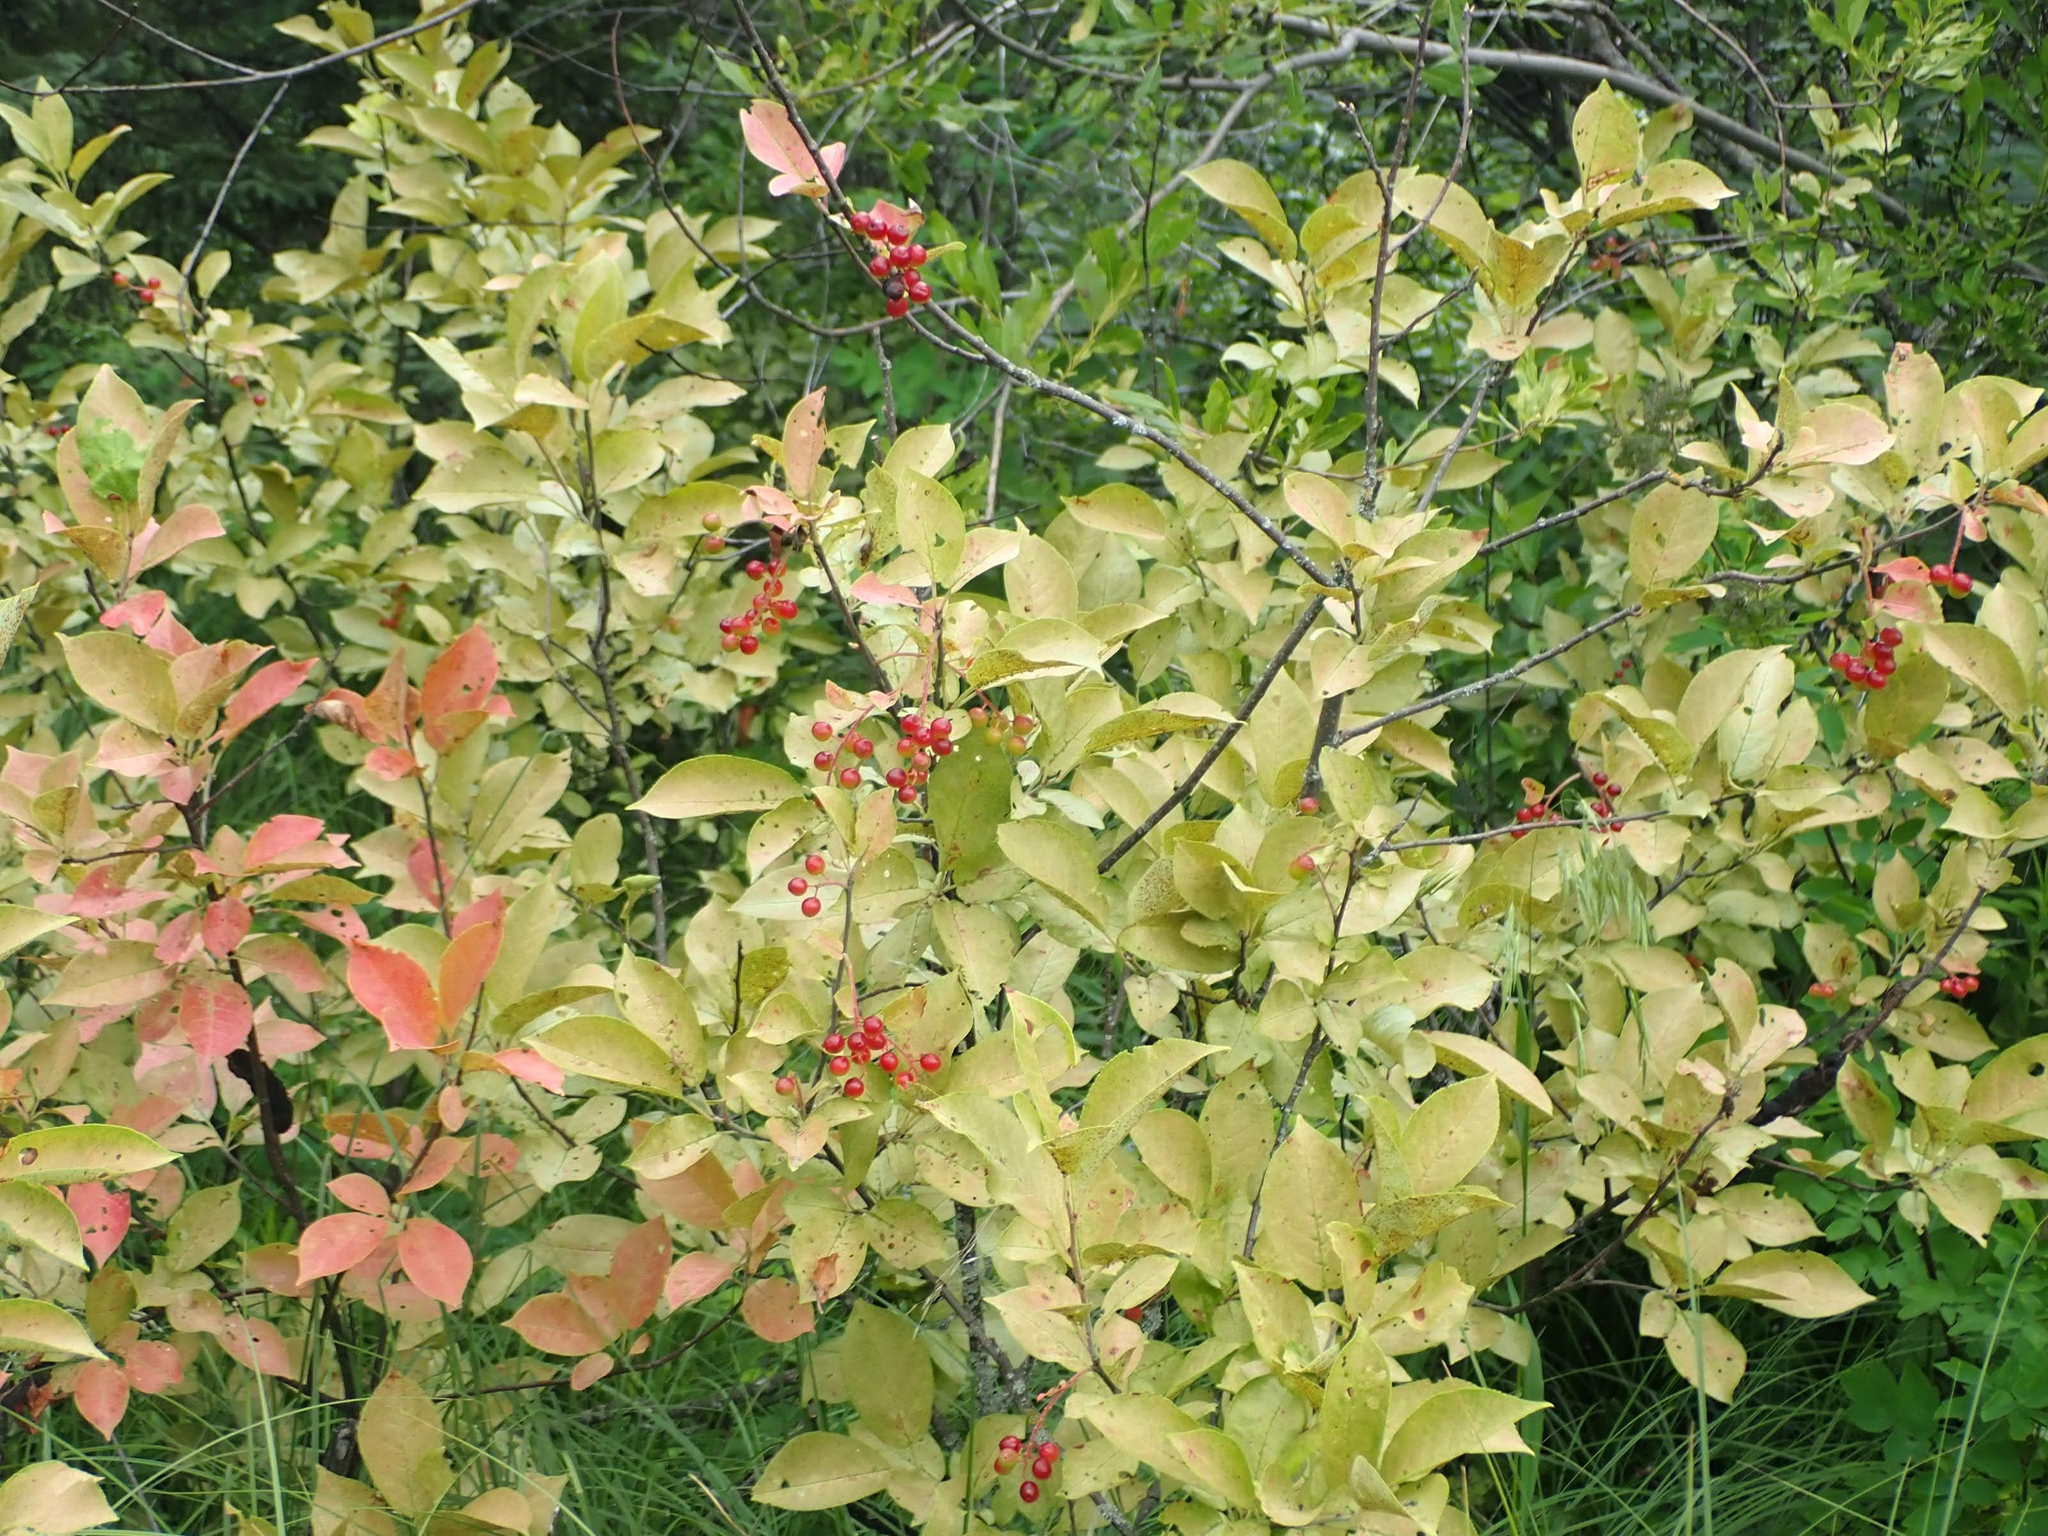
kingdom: Plantae
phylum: Tracheophyta
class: Magnoliopsida
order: Rosales
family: Rosaceae
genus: Prunus
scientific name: Prunus virginiana
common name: Chokecherry
